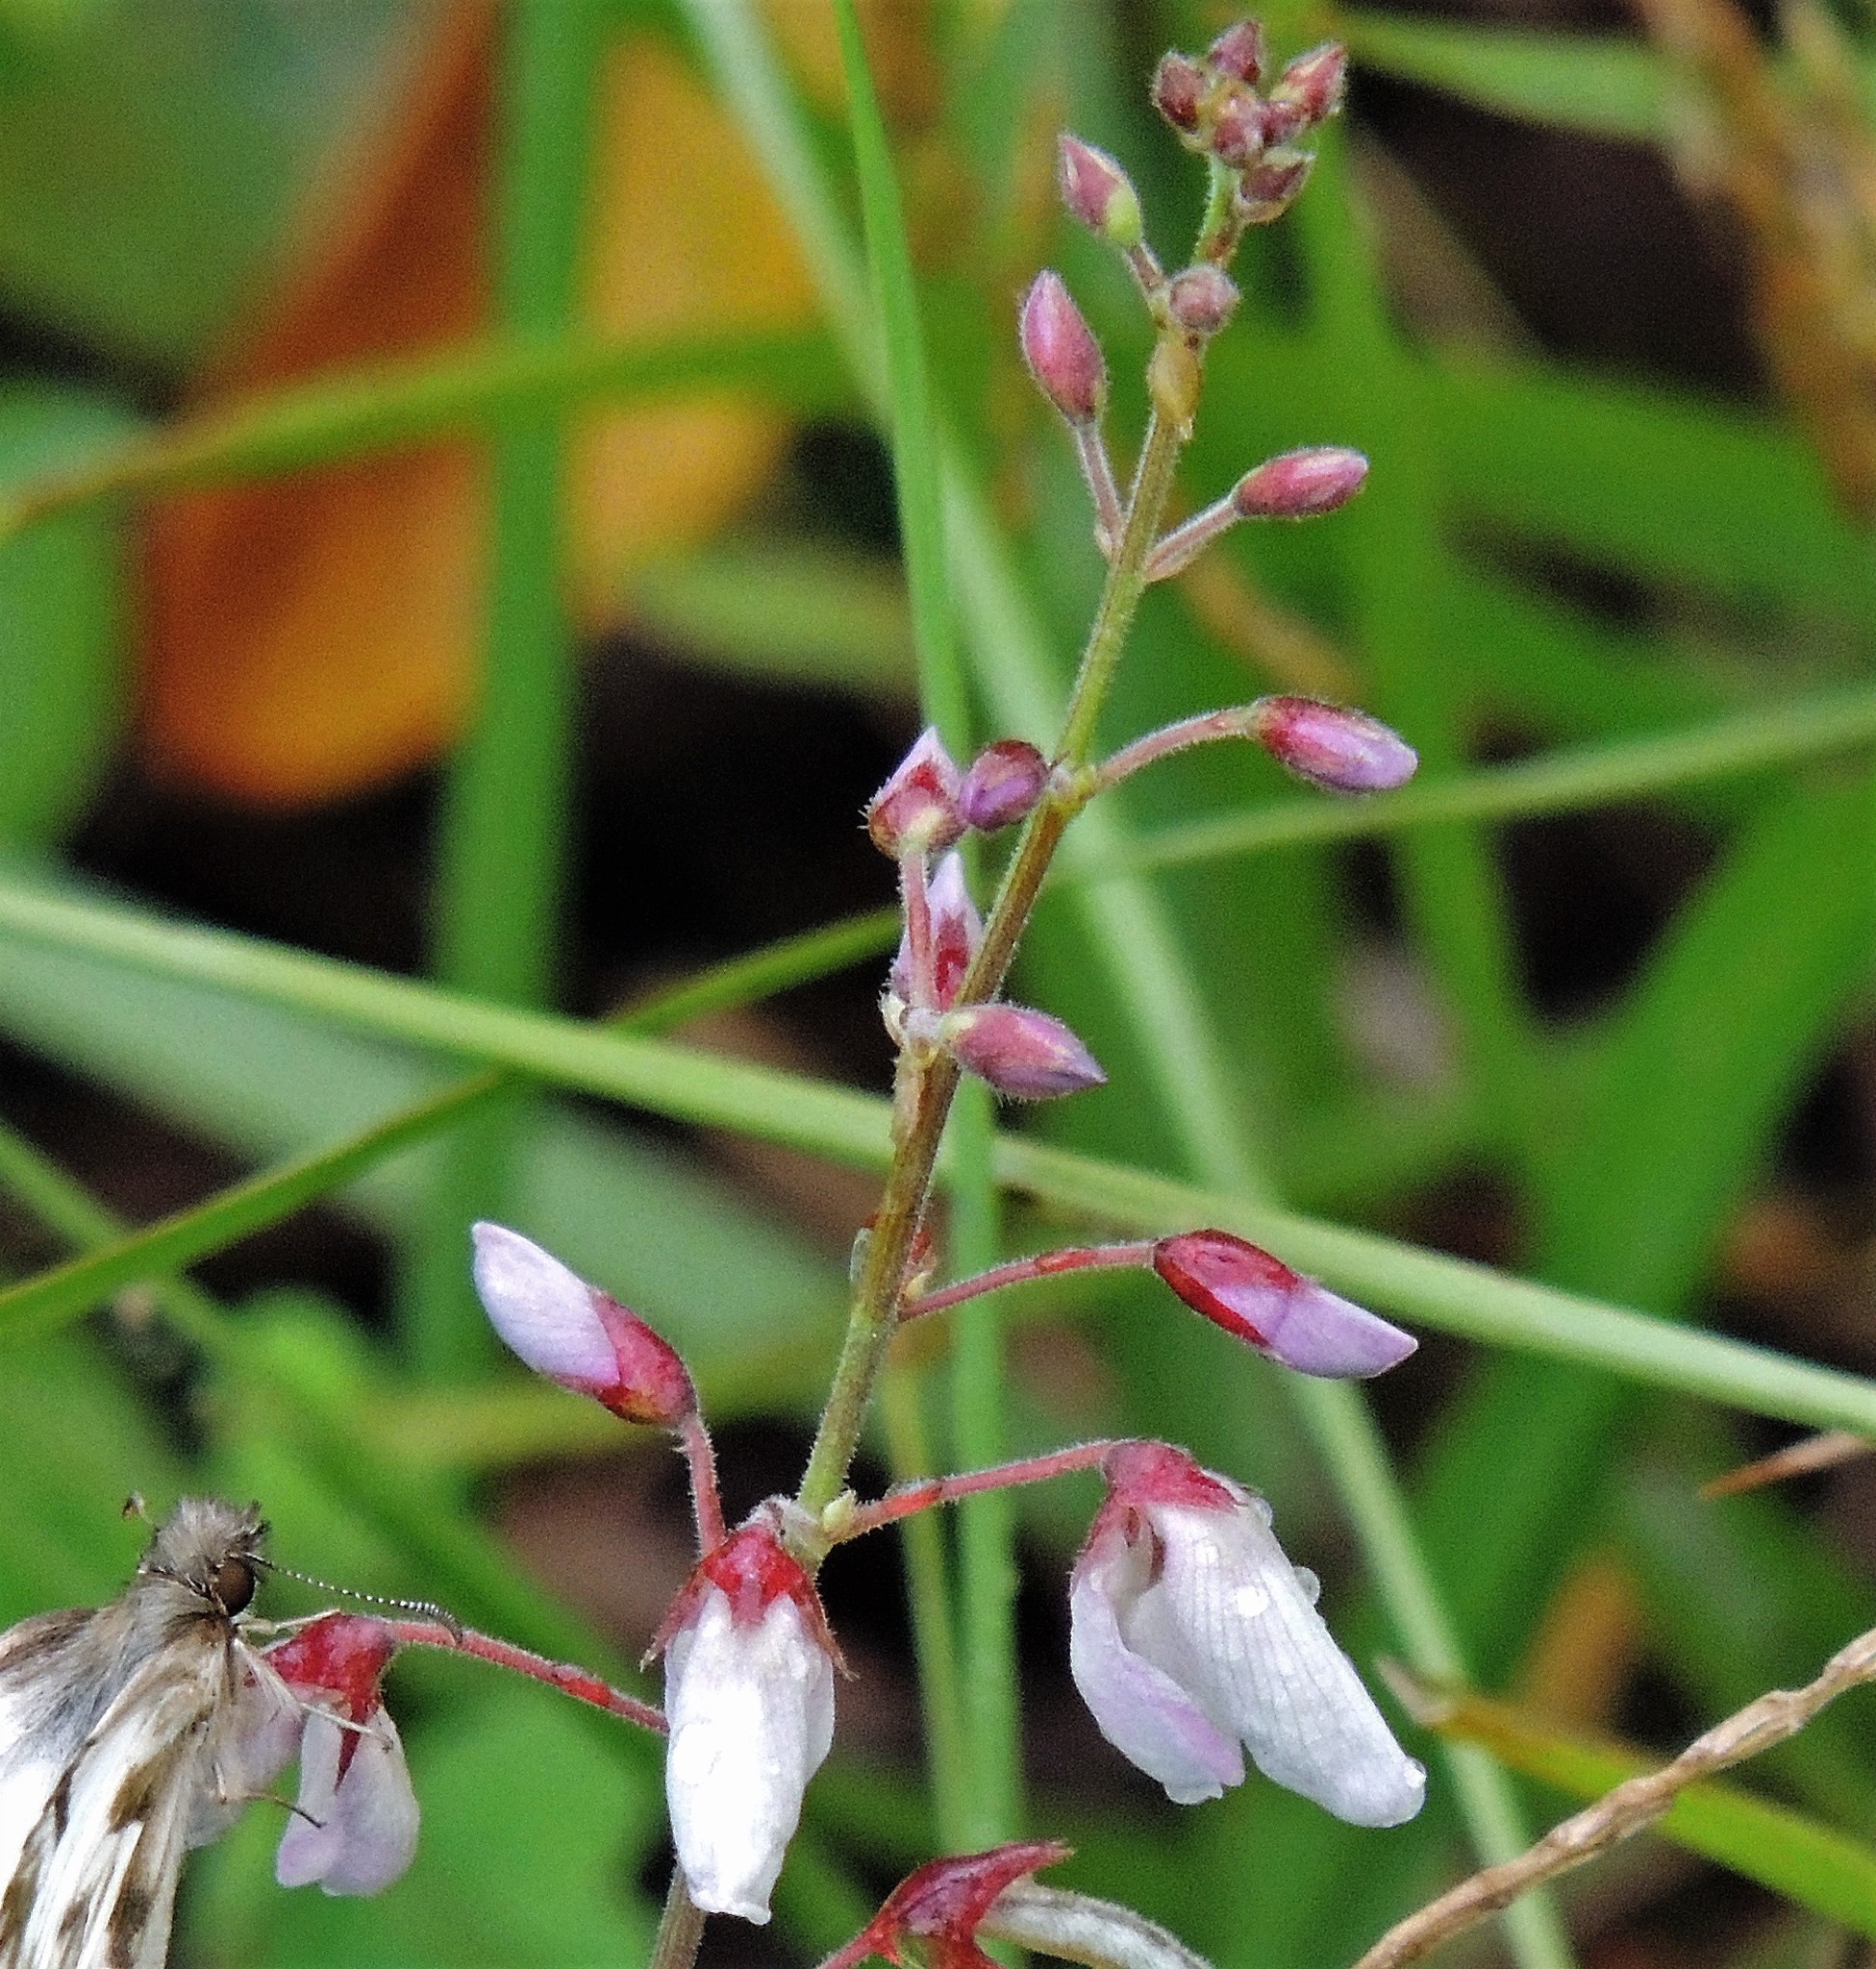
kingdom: Plantae
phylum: Tracheophyta
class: Magnoliopsida
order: Fabales
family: Fabaceae
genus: Desmodium
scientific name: Desmodium uncinatum
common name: Silverleaf desmodium
